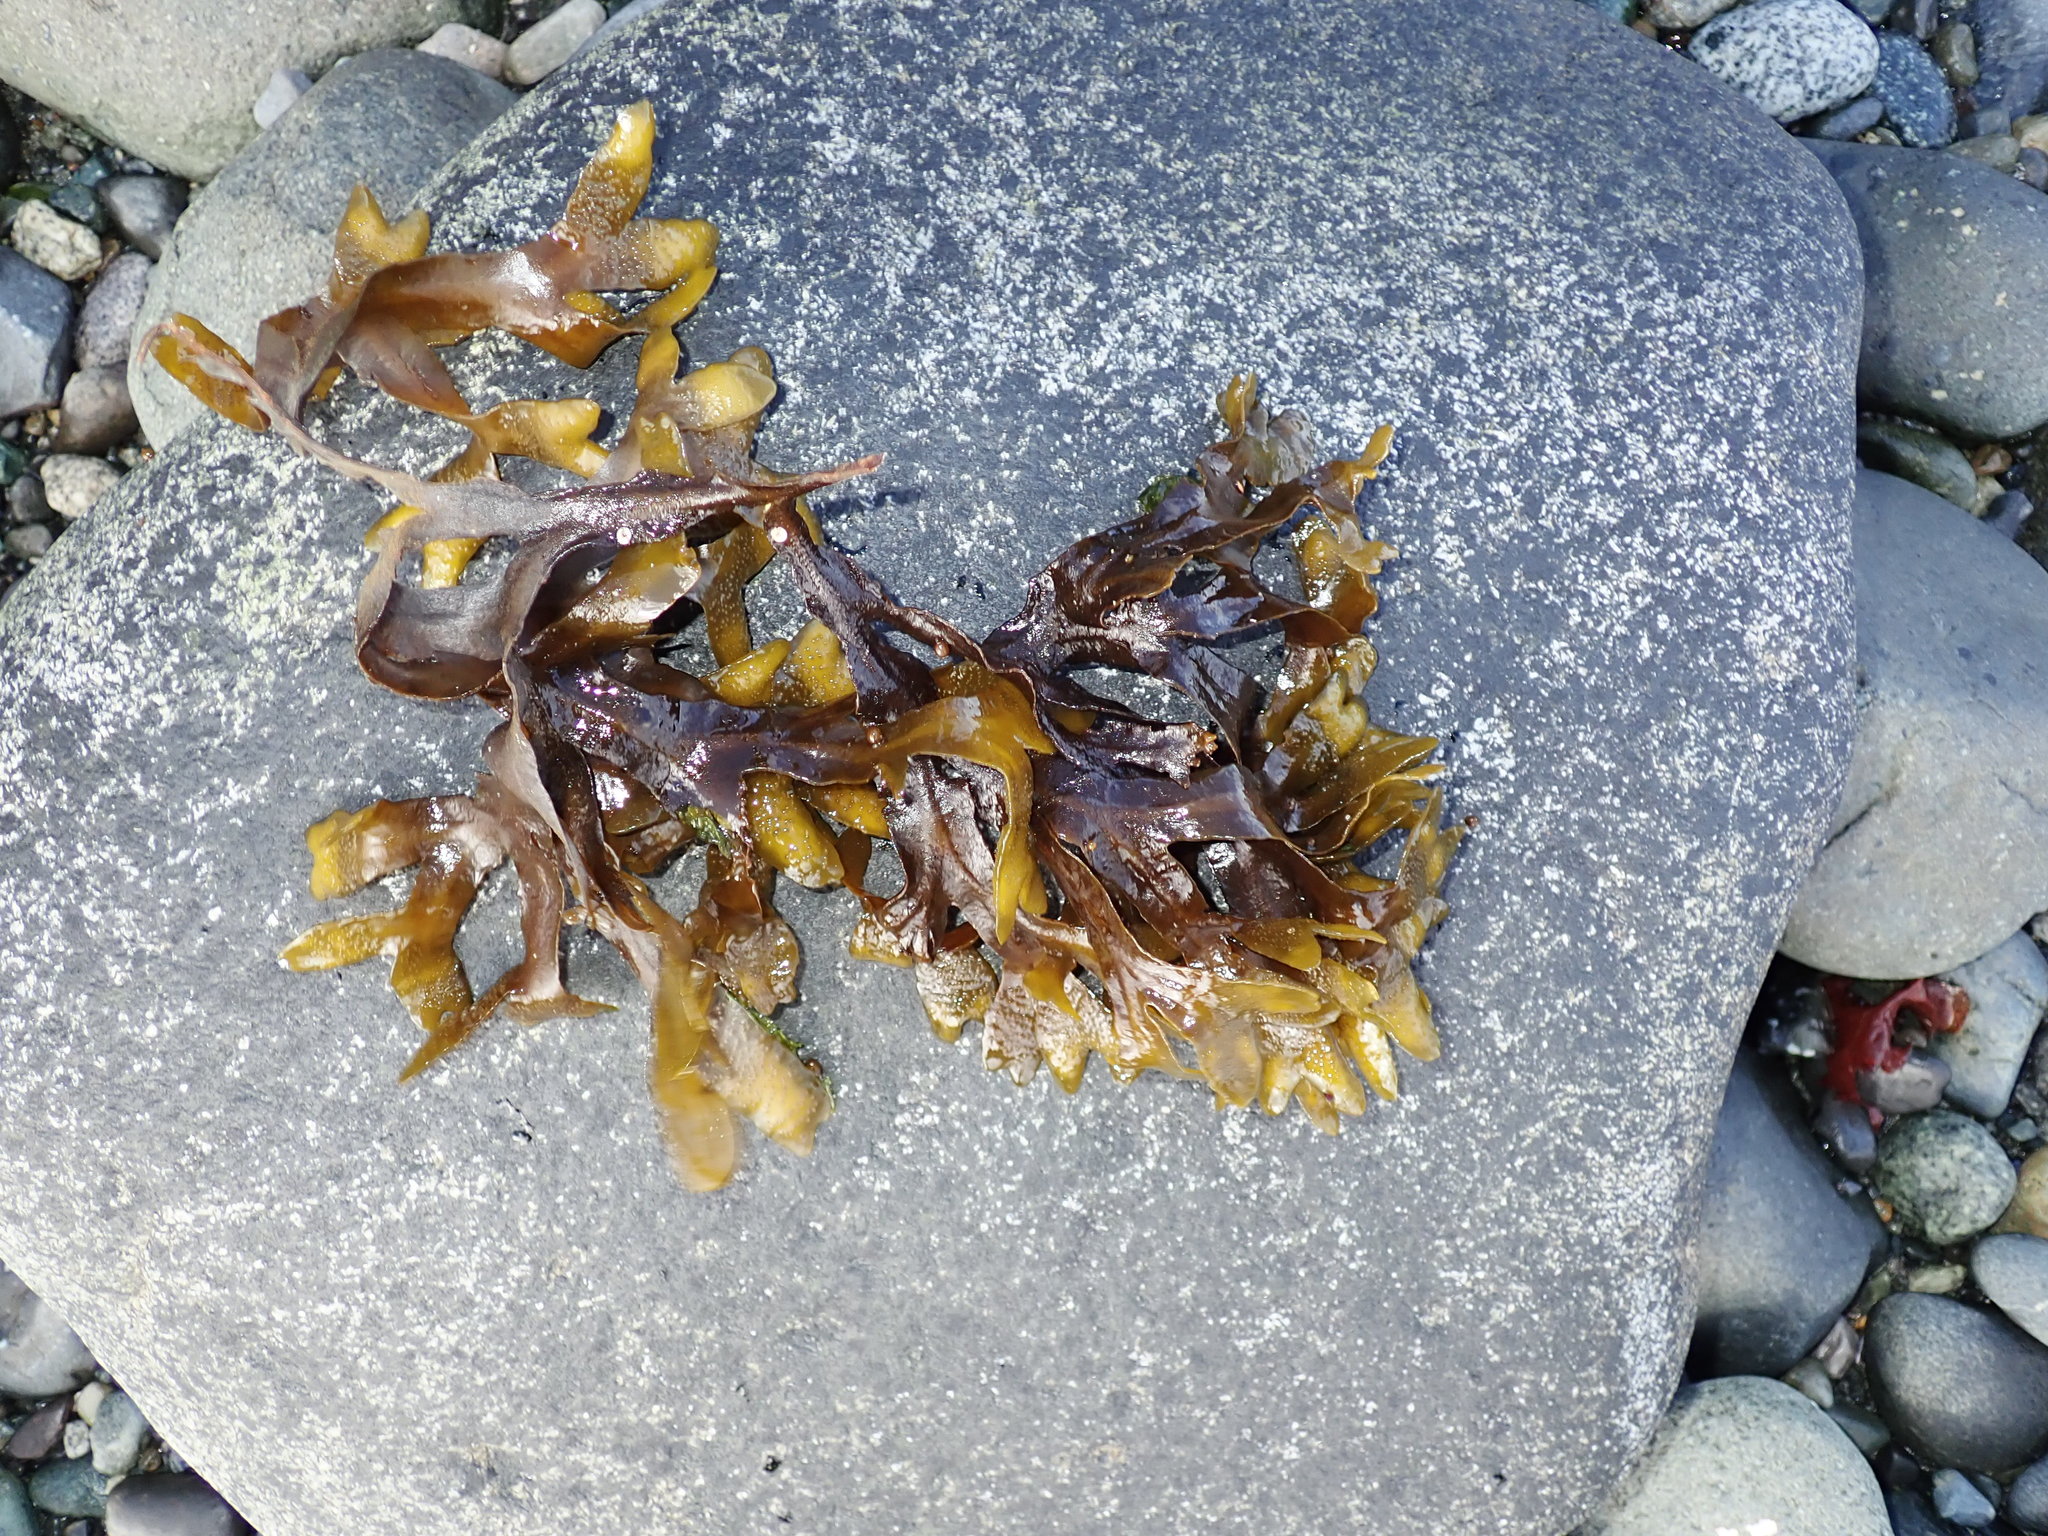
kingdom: Chromista
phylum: Ochrophyta
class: Phaeophyceae
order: Fucales
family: Fucaceae
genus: Fucus
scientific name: Fucus distichus
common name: Rockweed
